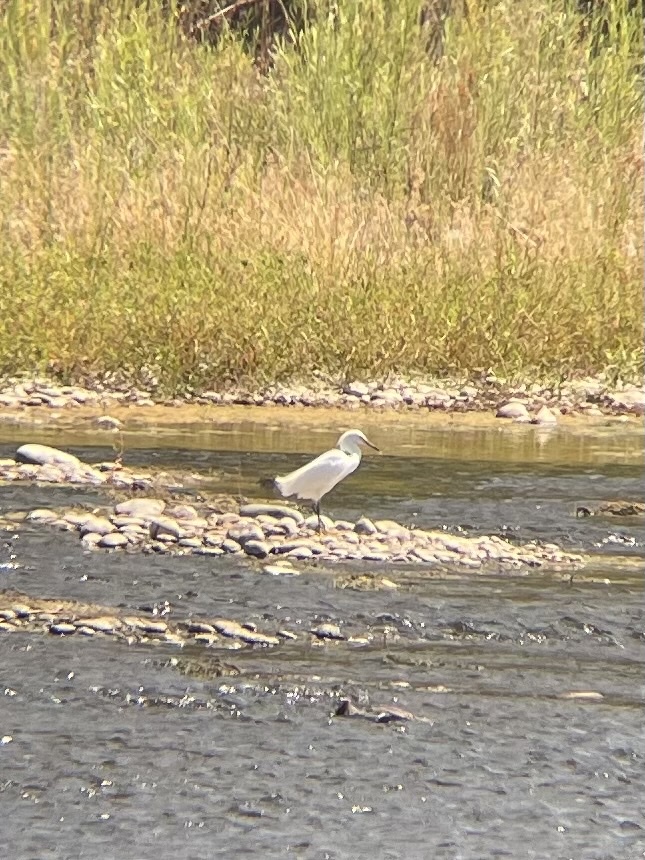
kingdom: Animalia
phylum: Chordata
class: Aves
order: Pelecaniformes
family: Ardeidae
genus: Egretta
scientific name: Egretta thula
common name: Snowy egret
